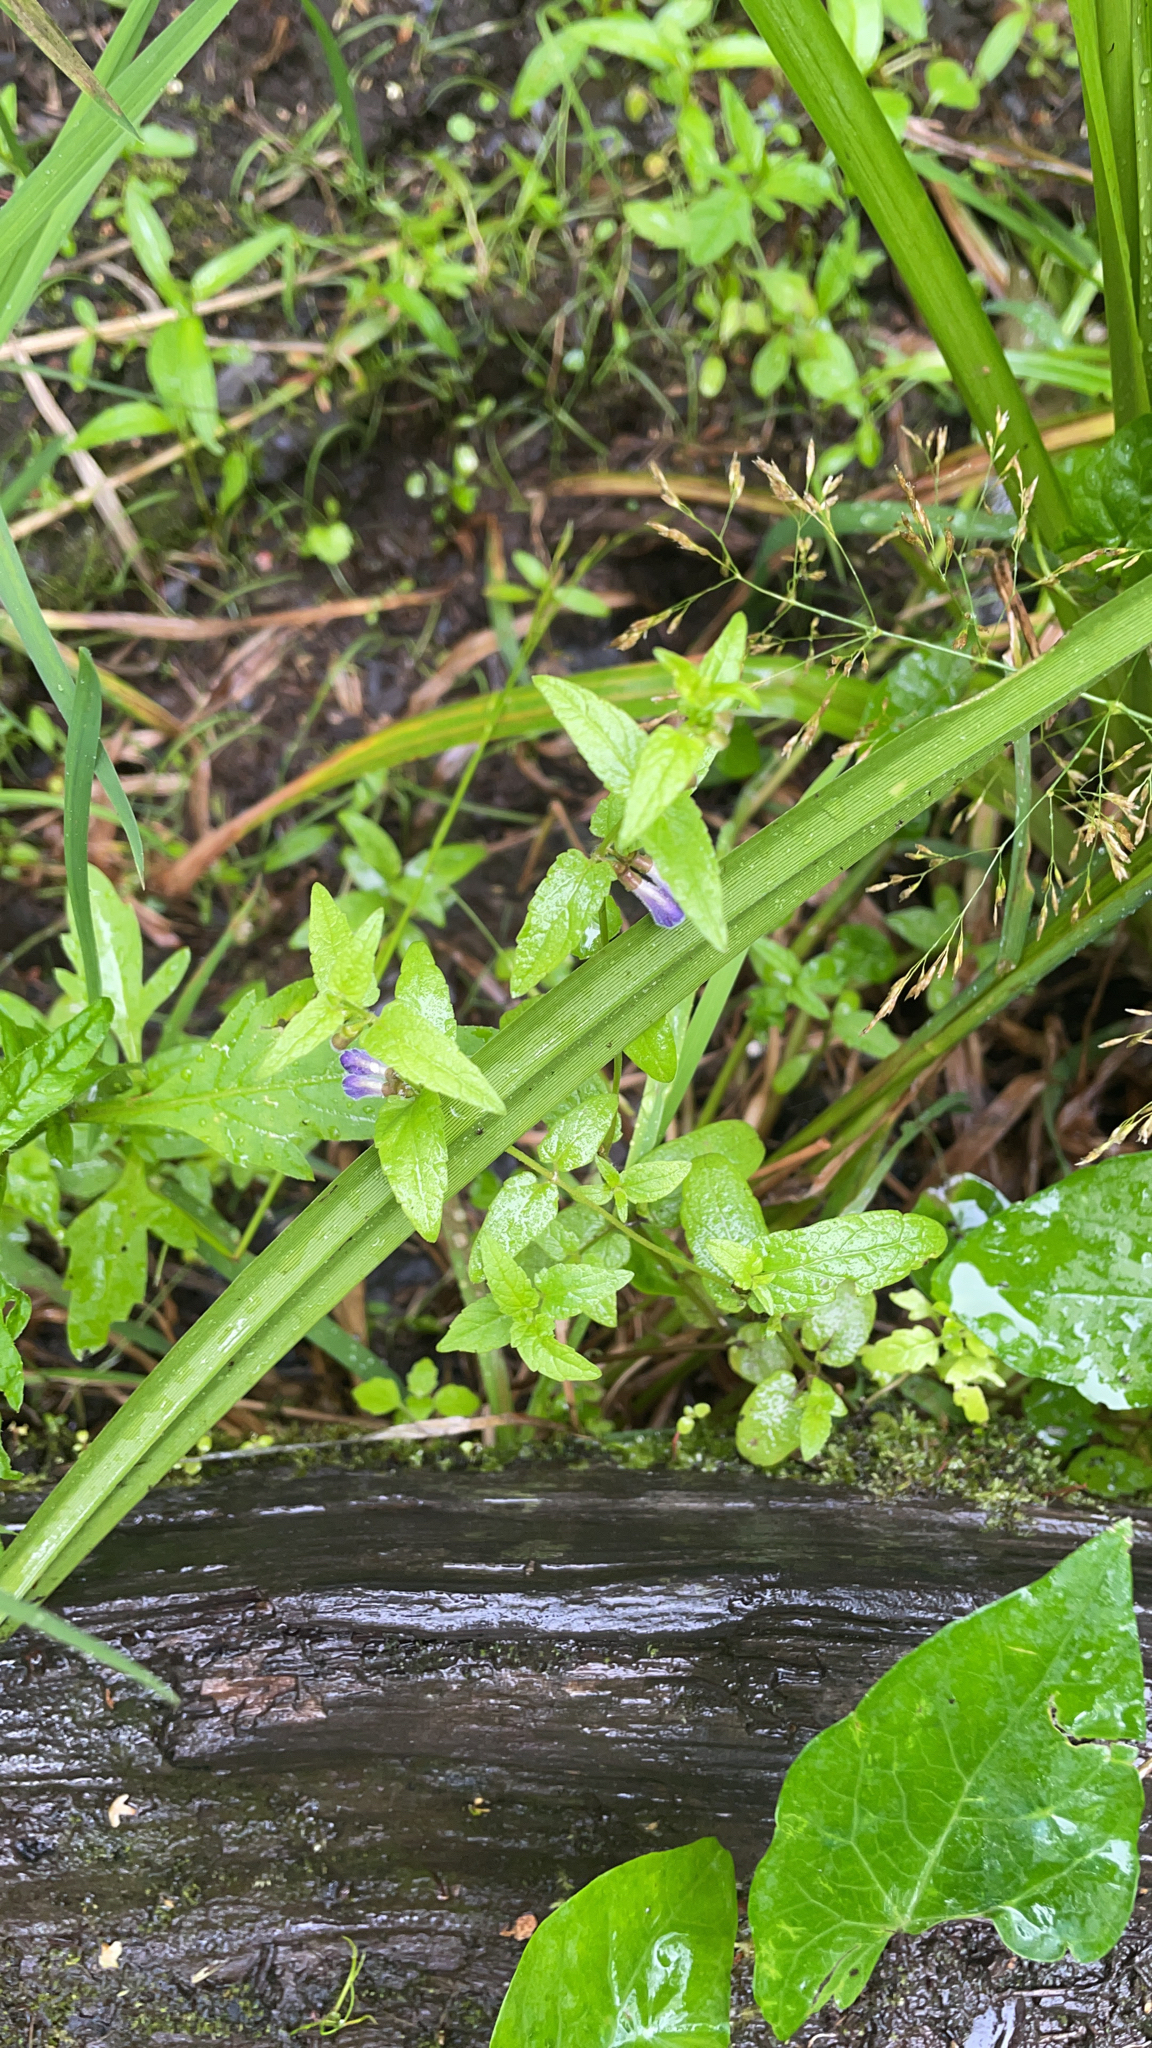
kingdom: Plantae
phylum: Tracheophyta
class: Magnoliopsida
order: Lamiales
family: Lamiaceae
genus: Scutellaria
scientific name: Scutellaria galericulata
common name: Skullcap
